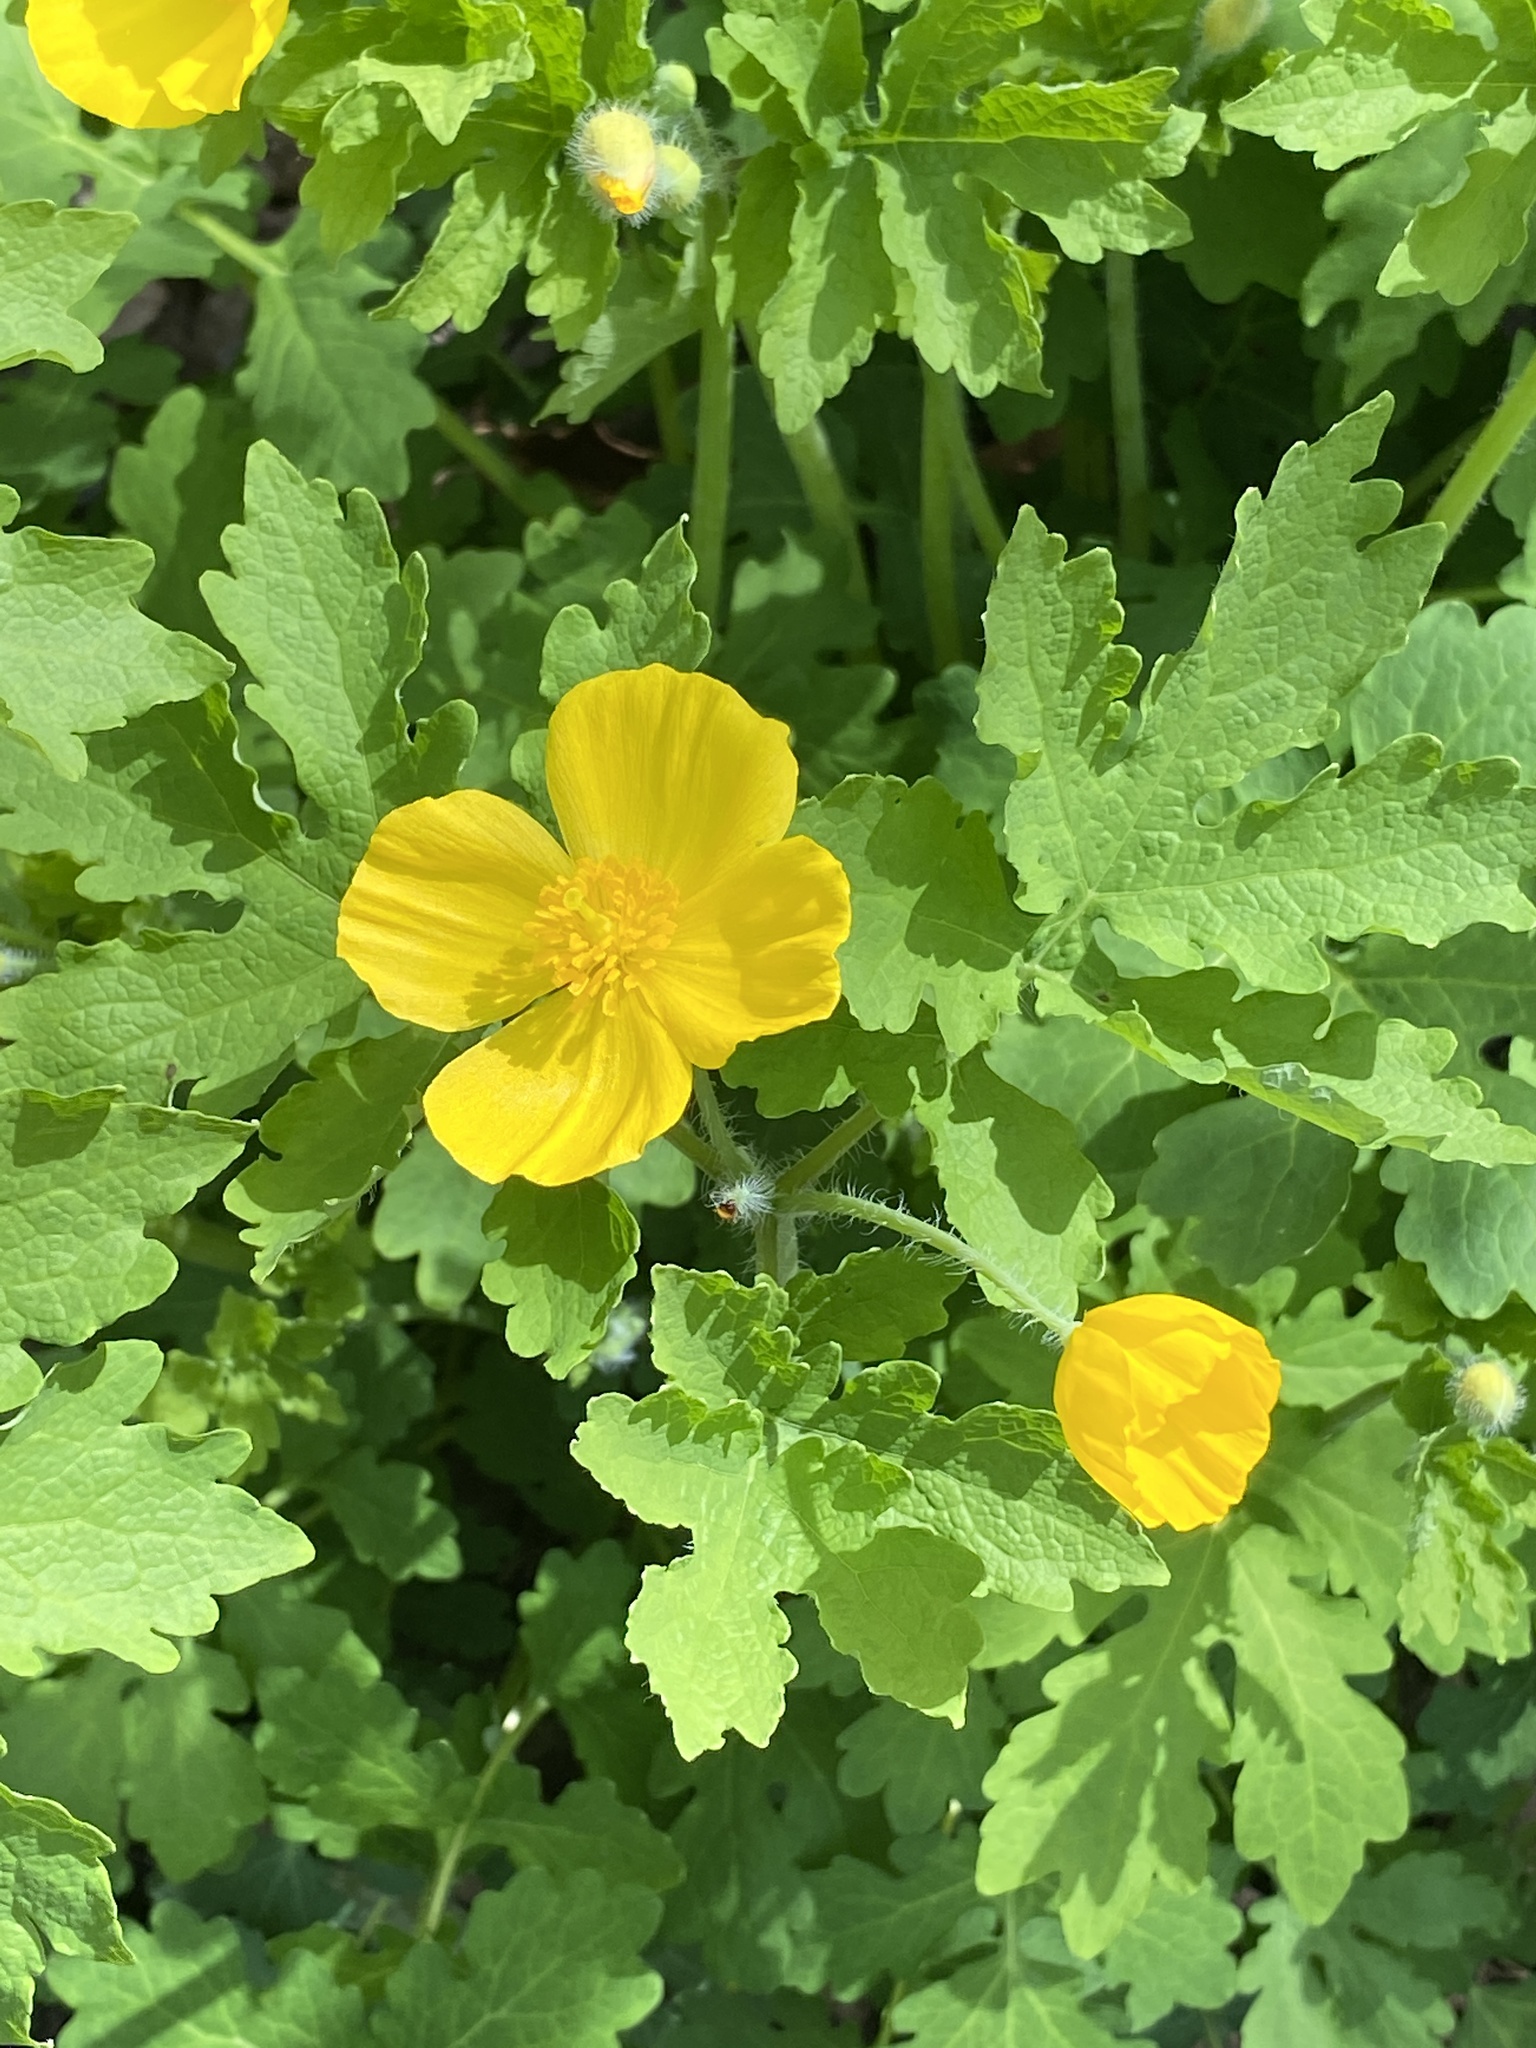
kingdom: Plantae
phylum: Tracheophyta
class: Magnoliopsida
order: Ranunculales
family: Papaveraceae
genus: Stylophorum
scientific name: Stylophorum diphyllum
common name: Celandine poppy
